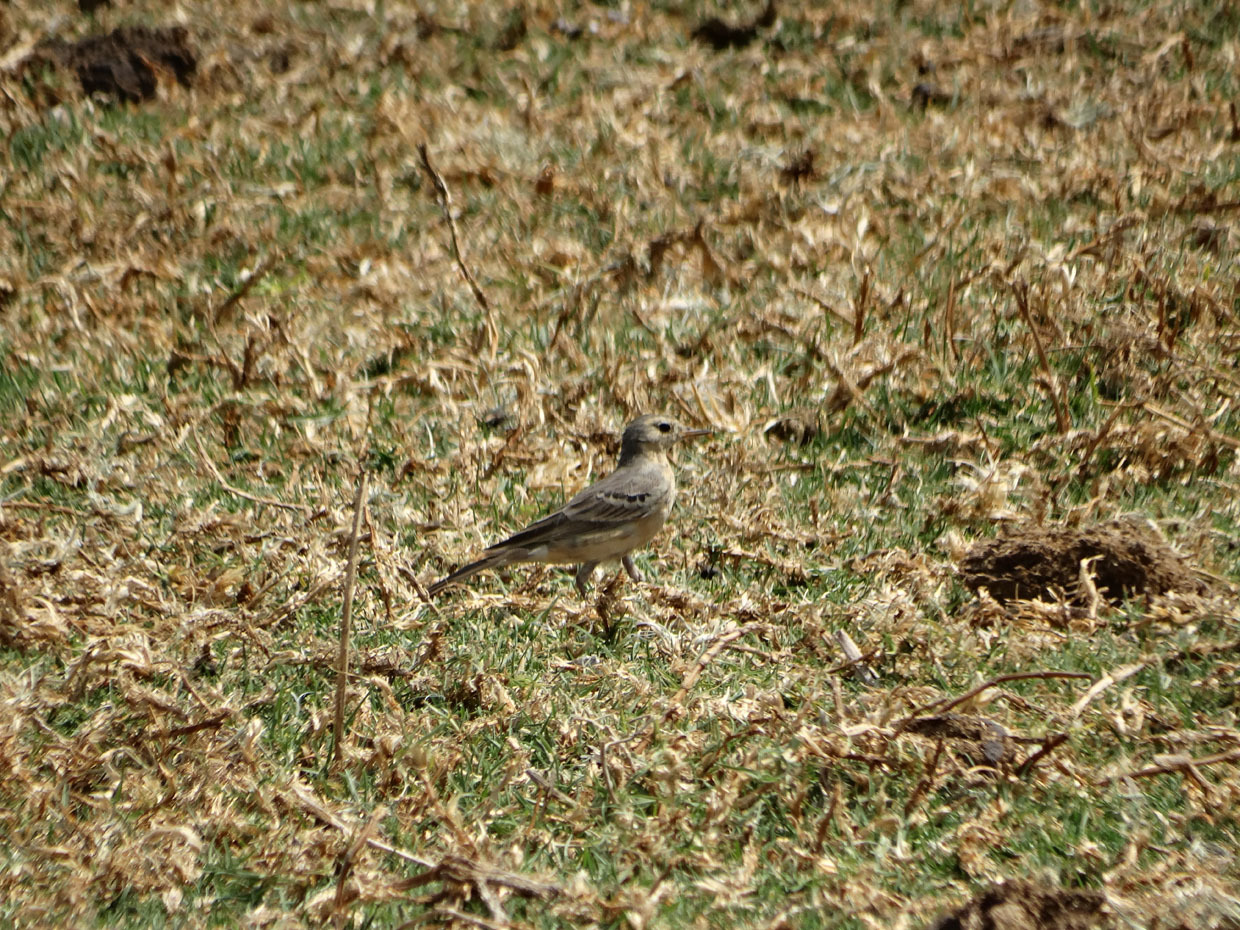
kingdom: Animalia
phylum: Chordata
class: Aves
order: Passeriformes
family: Motacillidae
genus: Anthus
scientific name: Anthus rubescens
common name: Buff-bellied pipit
